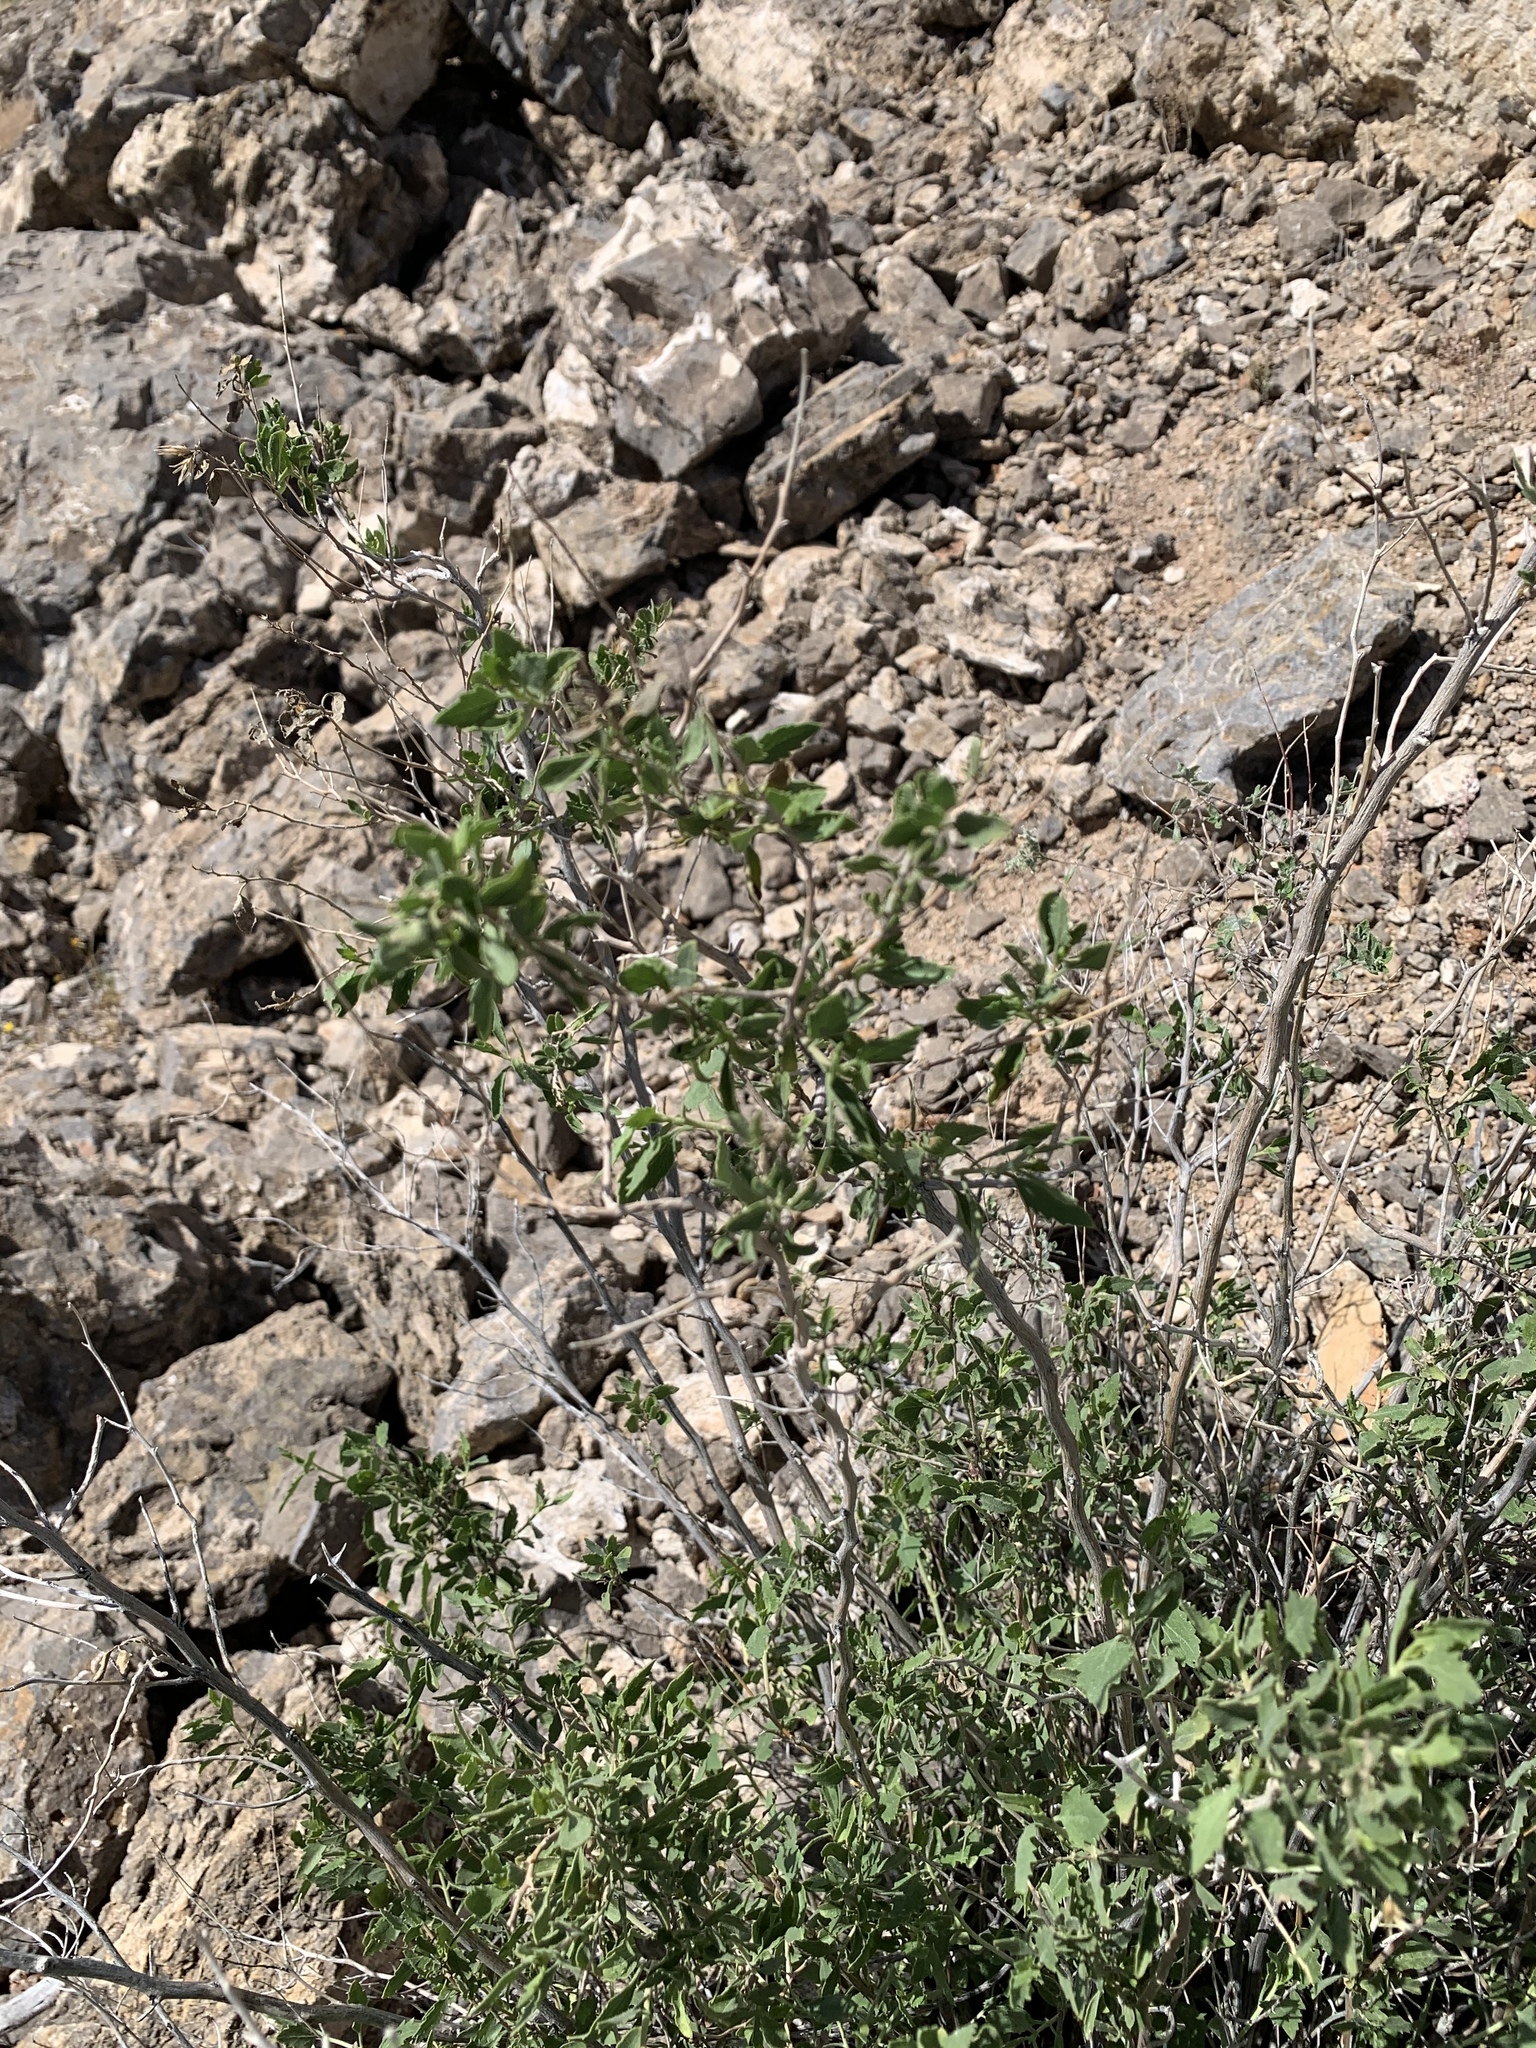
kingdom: Plantae
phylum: Tracheophyta
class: Magnoliopsida
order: Asterales
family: Asteraceae
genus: Flourensia
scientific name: Flourensia cernua
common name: Varnishbush
